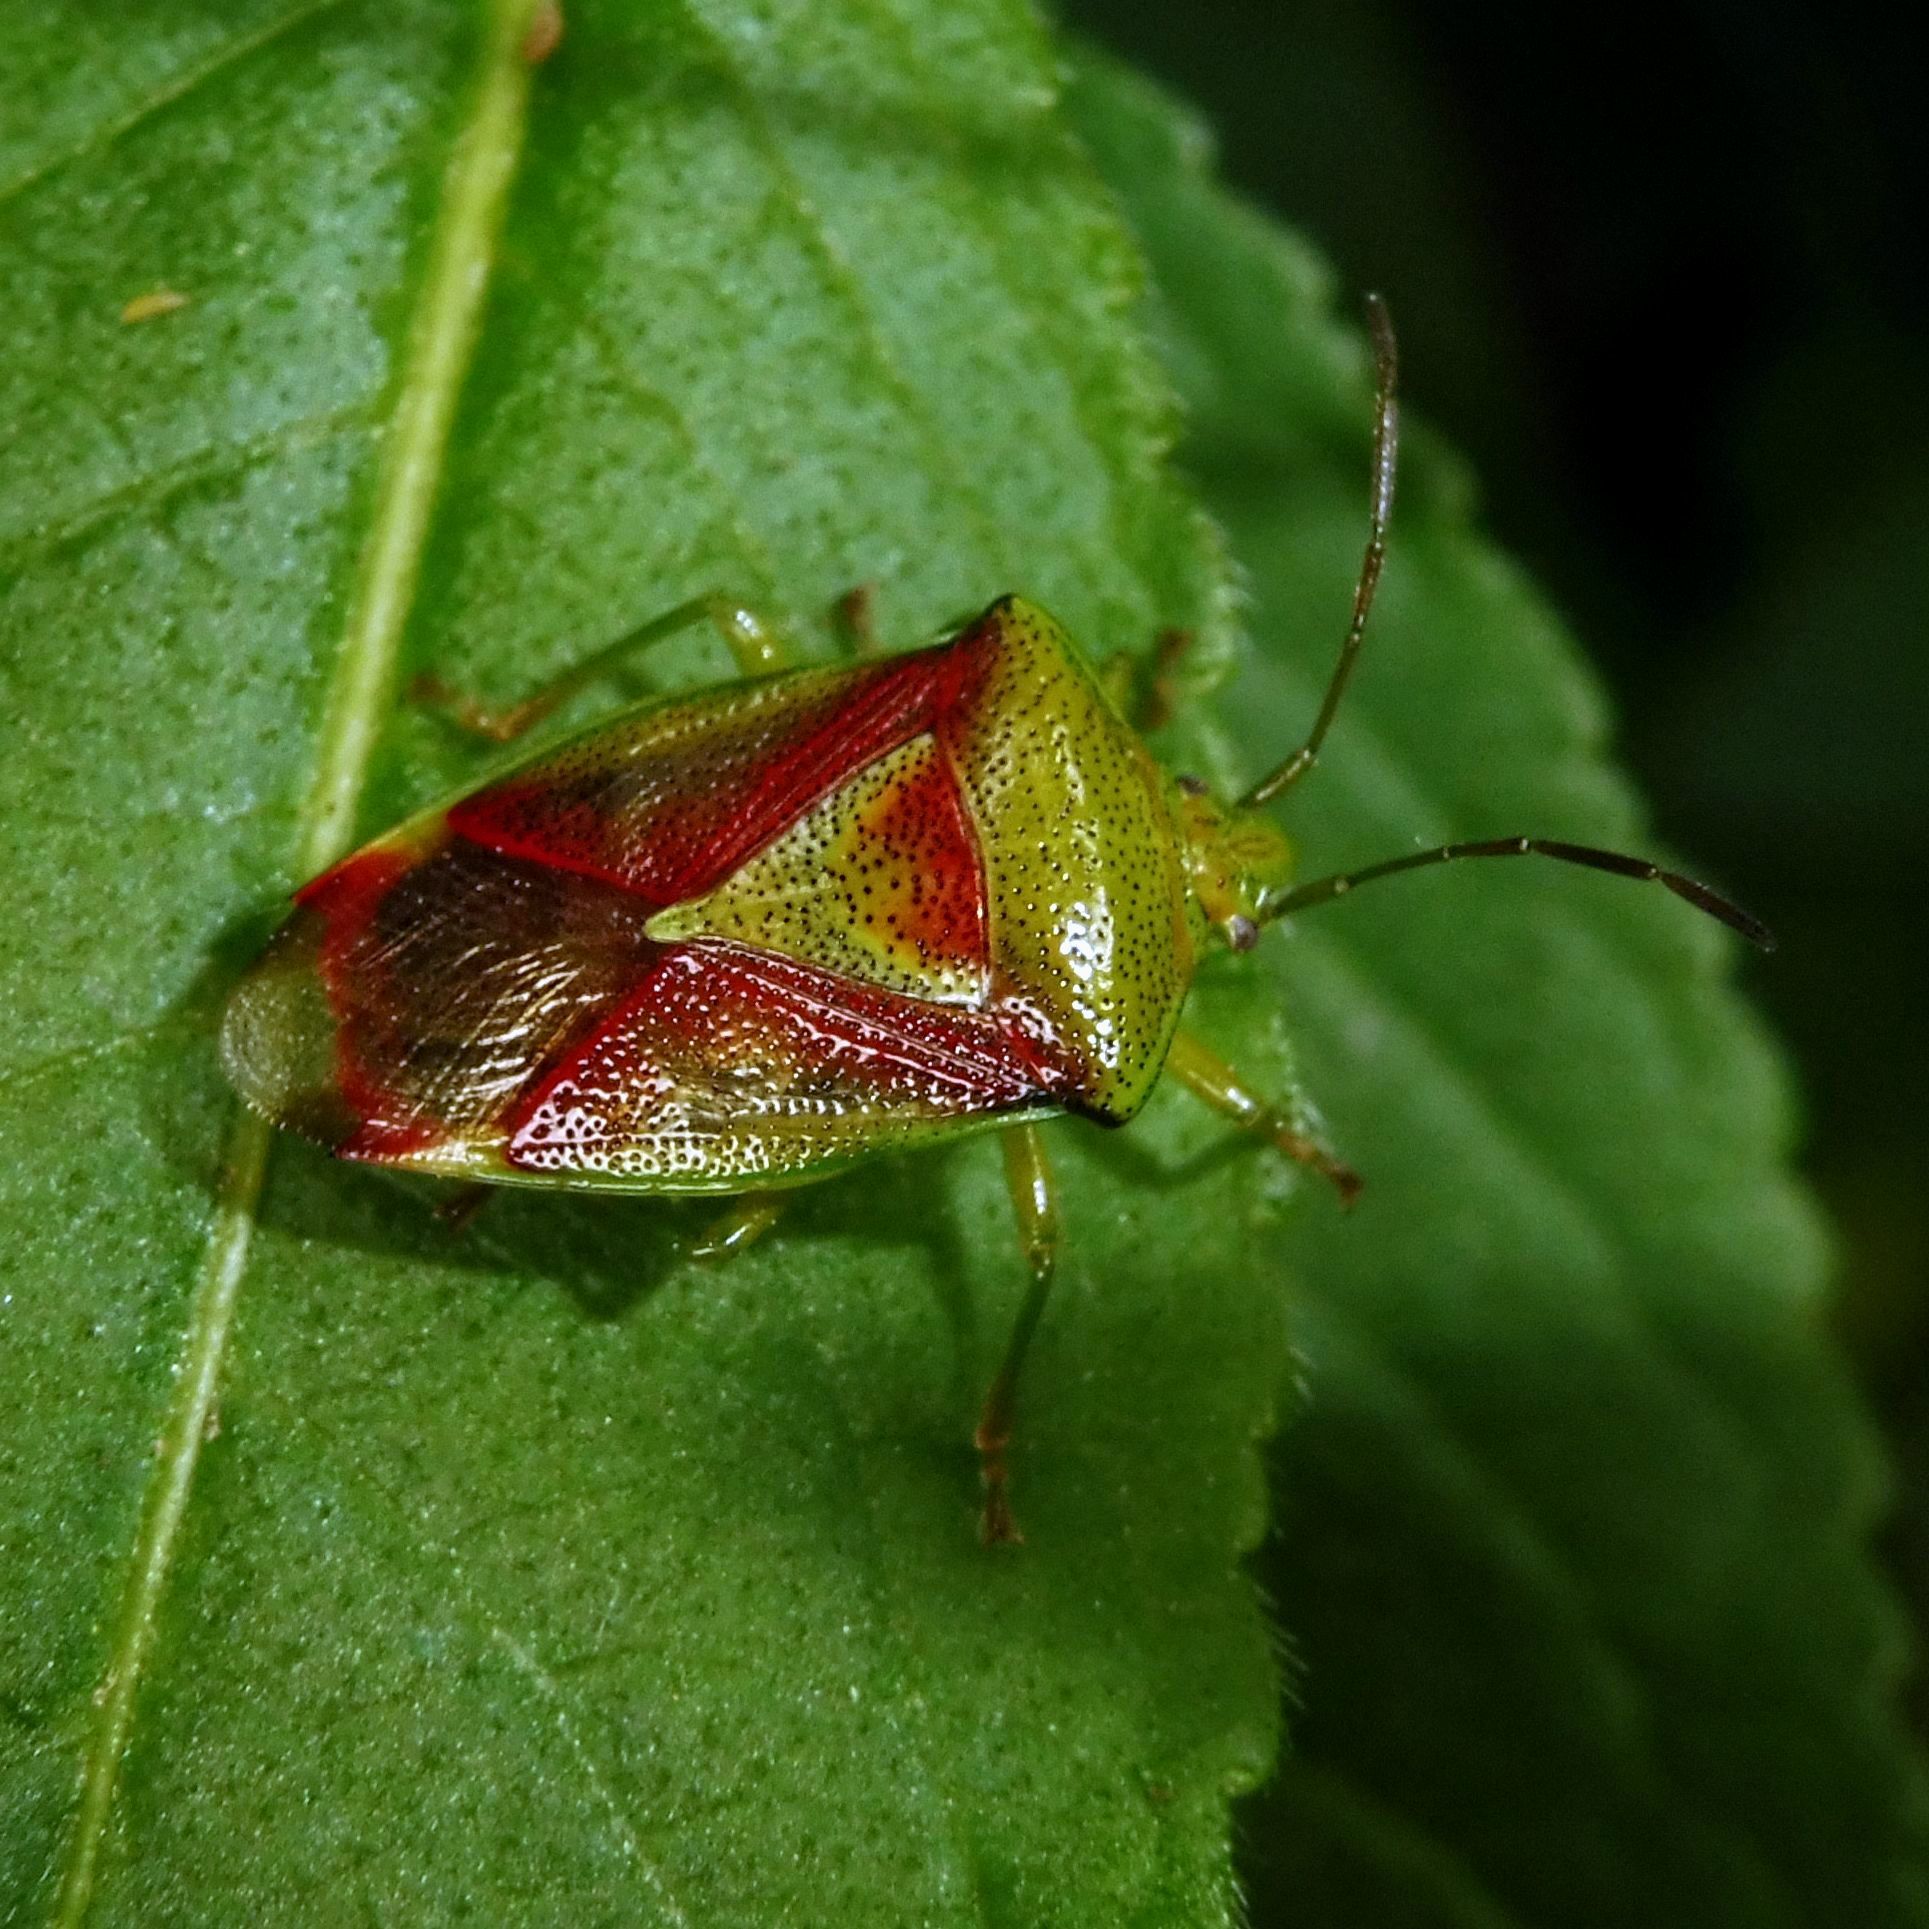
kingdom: Animalia
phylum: Arthropoda
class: Insecta
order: Hemiptera
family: Acanthosomatidae
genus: Elasmostethus
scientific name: Elasmostethus interstinctus
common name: Birch shieldbug
